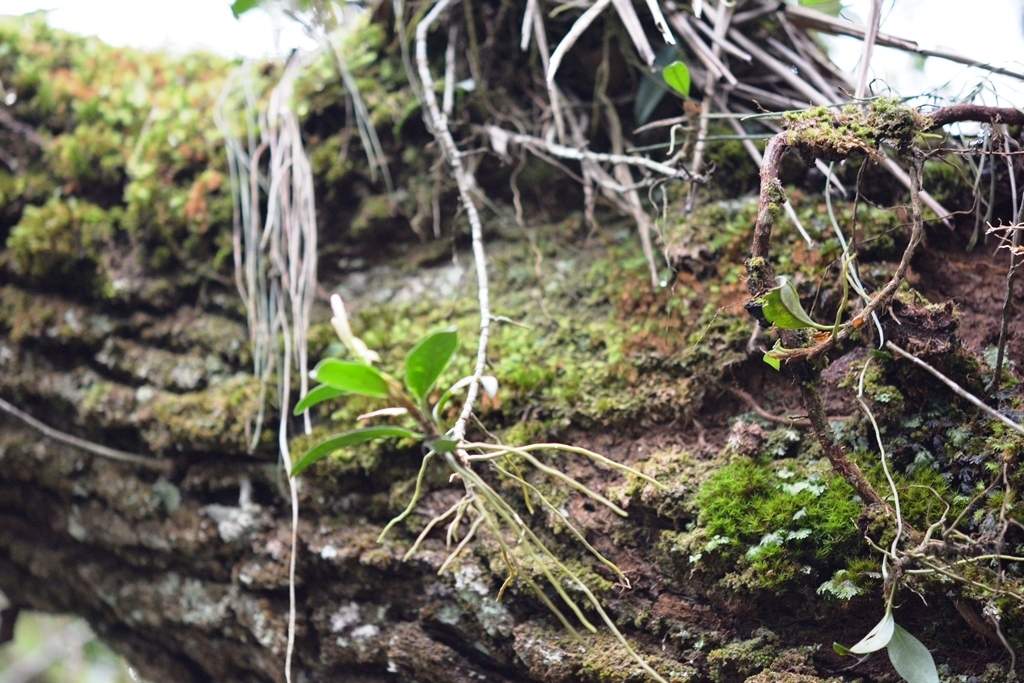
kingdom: Plantae
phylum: Tracheophyta
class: Liliopsida
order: Alismatales
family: Araceae
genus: Anthurium
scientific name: Anthurium scandens
